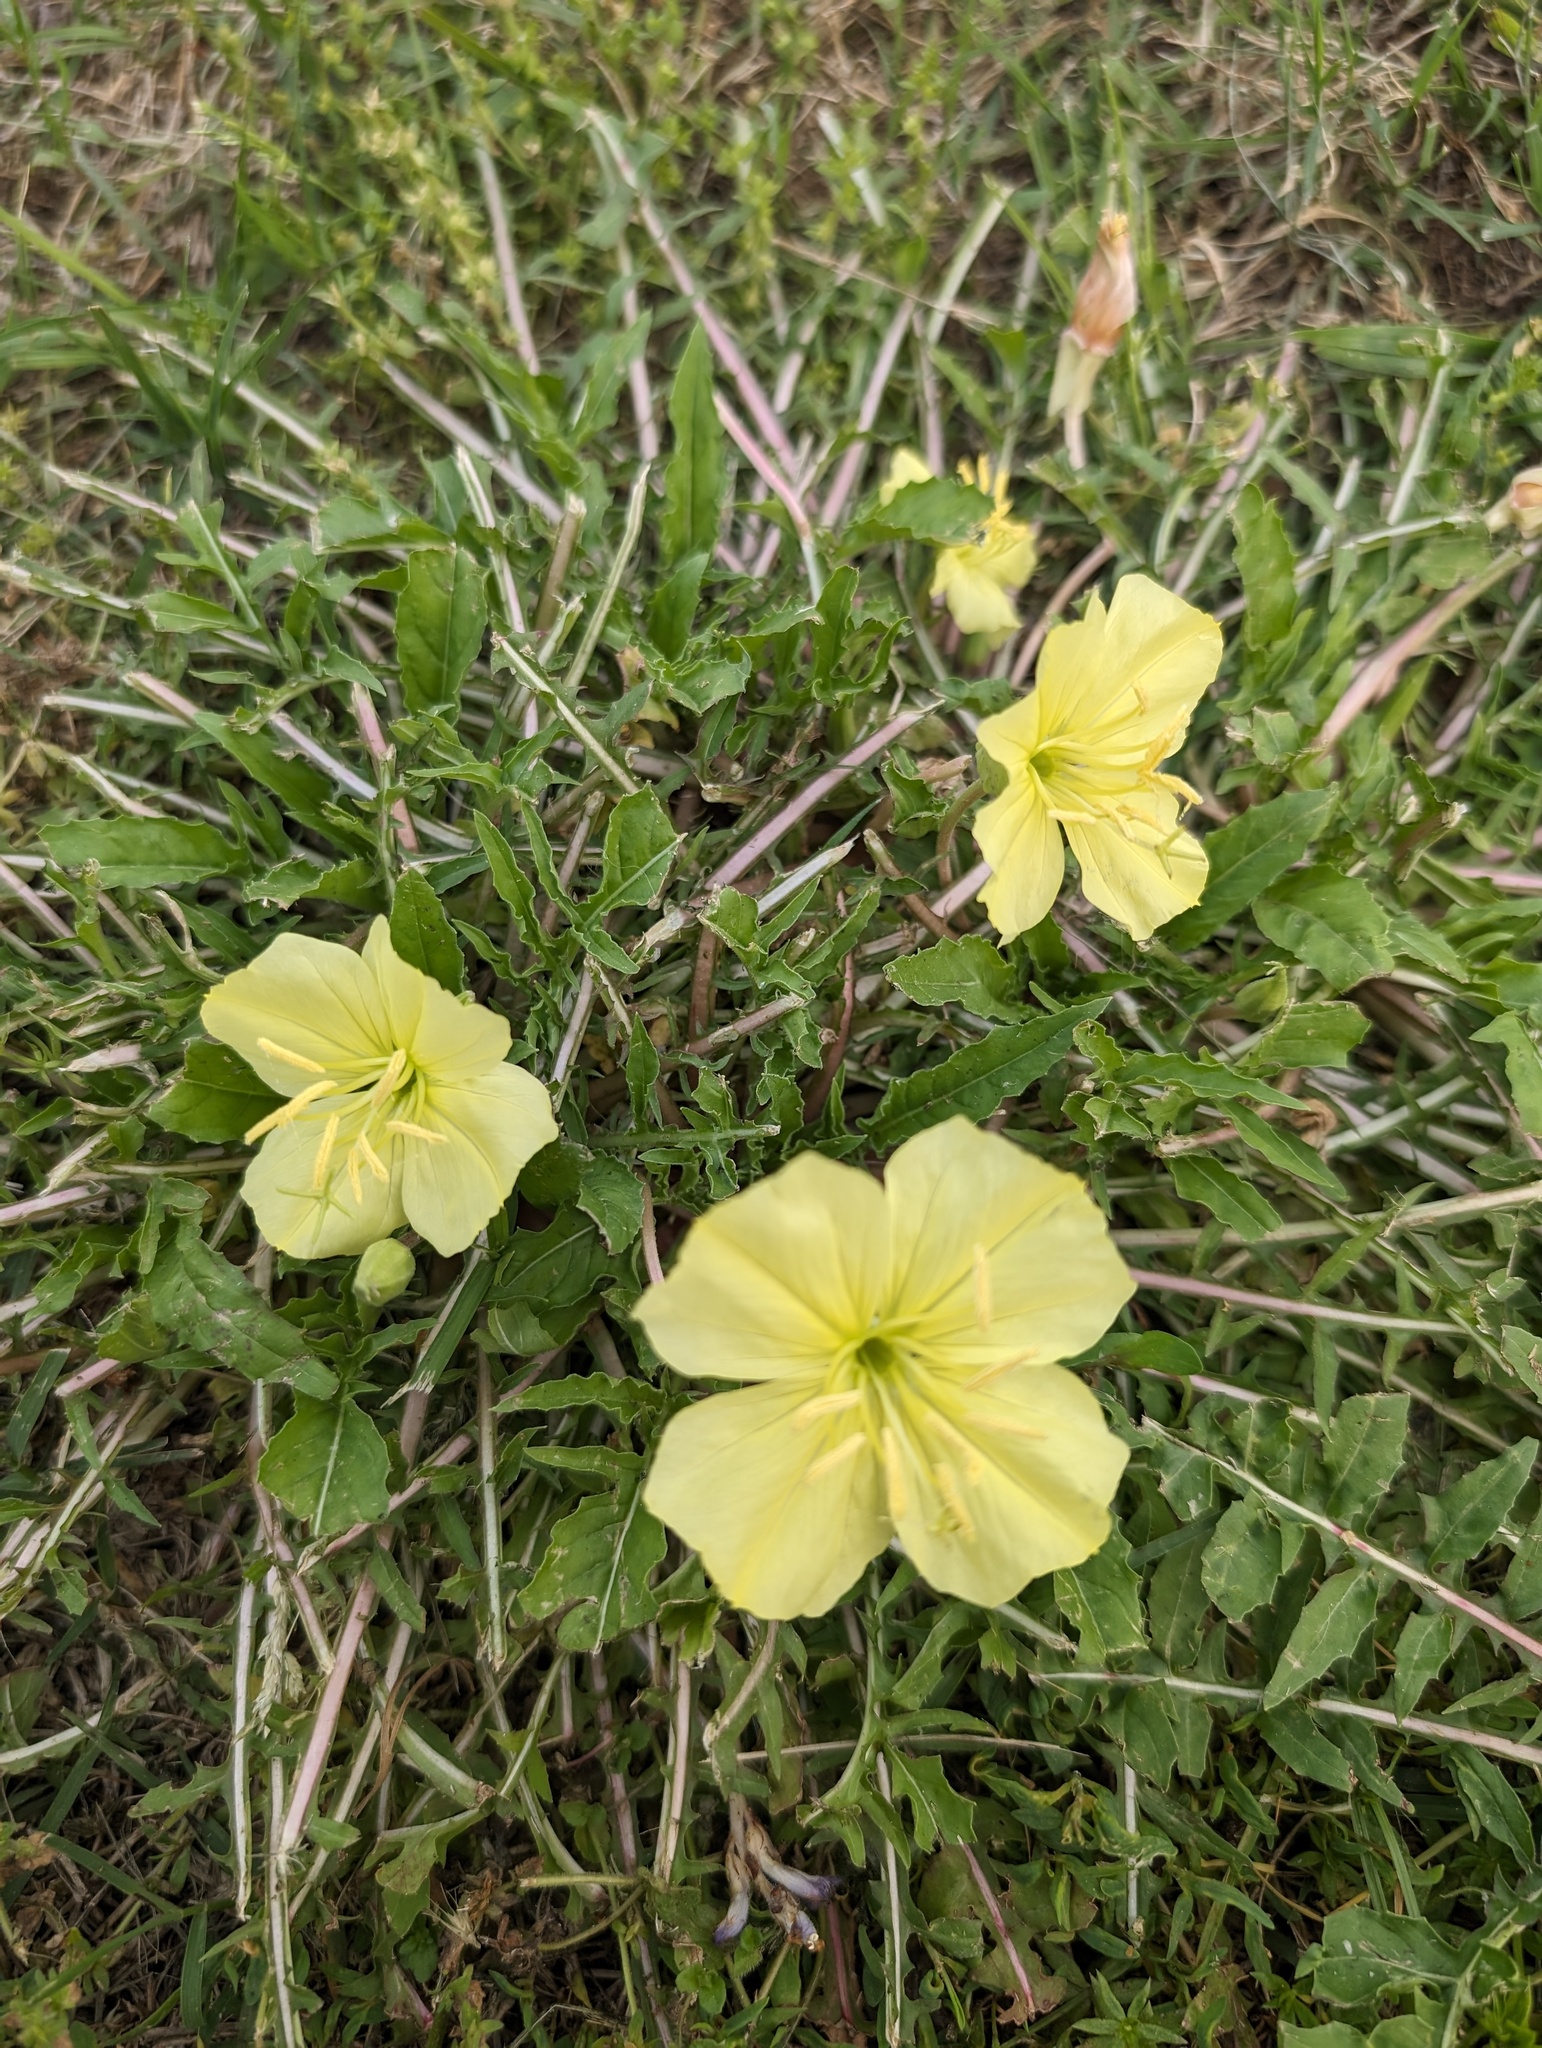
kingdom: Plantae
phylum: Tracheophyta
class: Magnoliopsida
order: Myrtales
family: Onagraceae
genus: Oenothera
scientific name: Oenothera triloba
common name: Sessile evening-primrose
